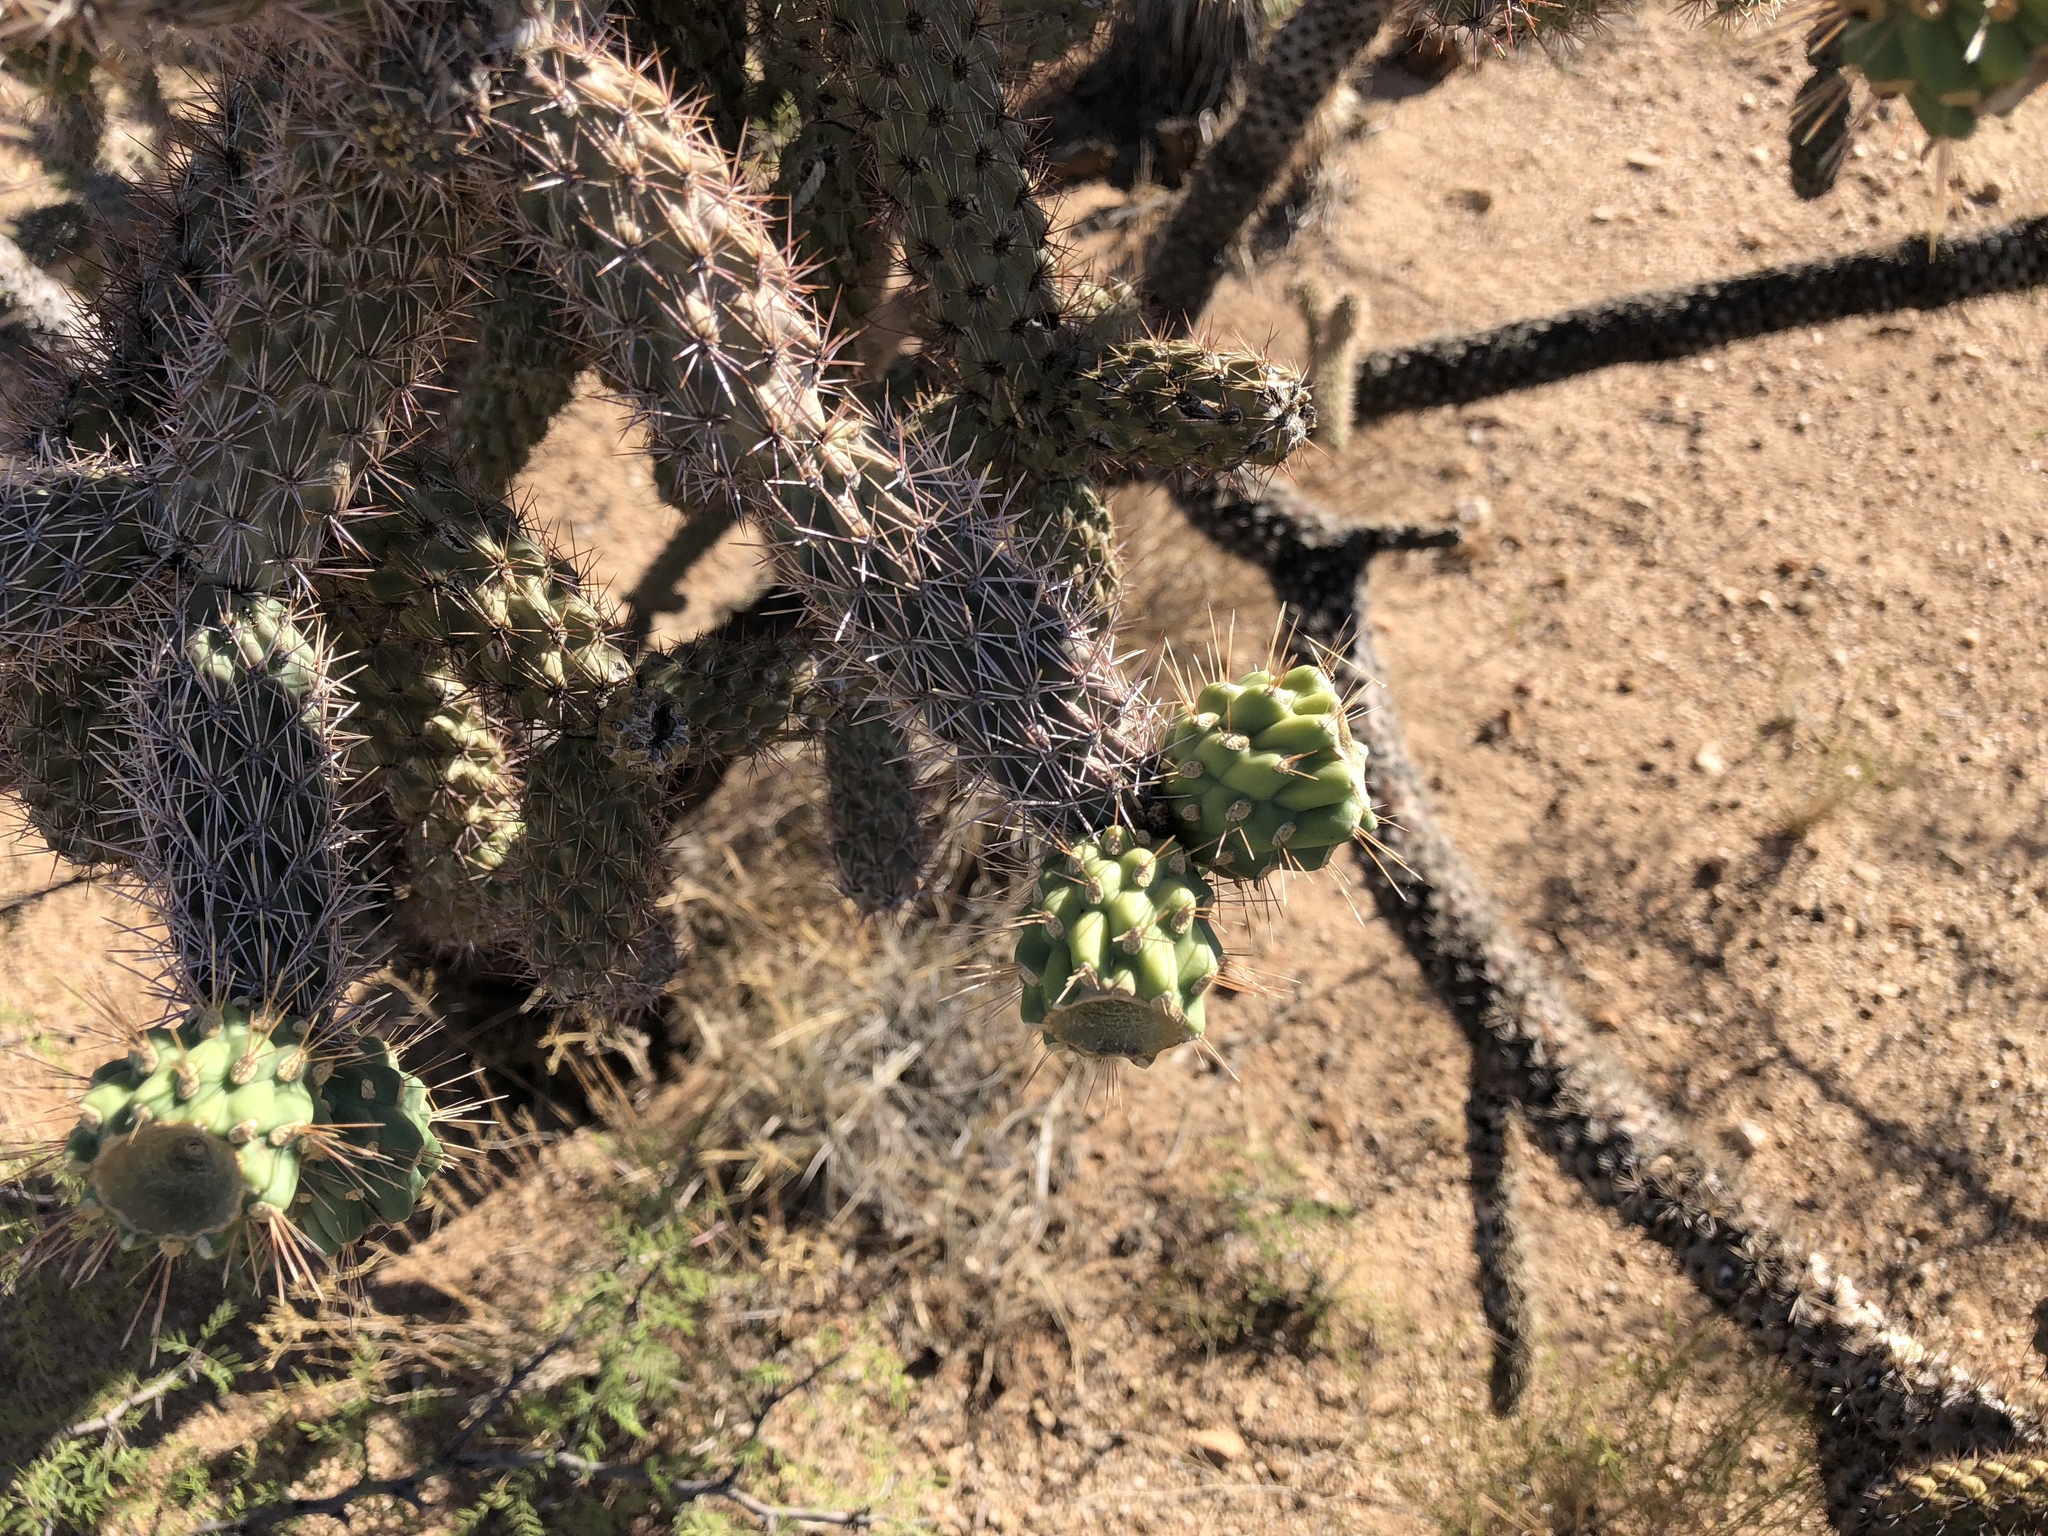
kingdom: Plantae
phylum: Tracheophyta
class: Magnoliopsida
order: Caryophyllales
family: Cactaceae
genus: Cylindropuntia
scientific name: Cylindropuntia imbricata
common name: Candelabrum cactus
